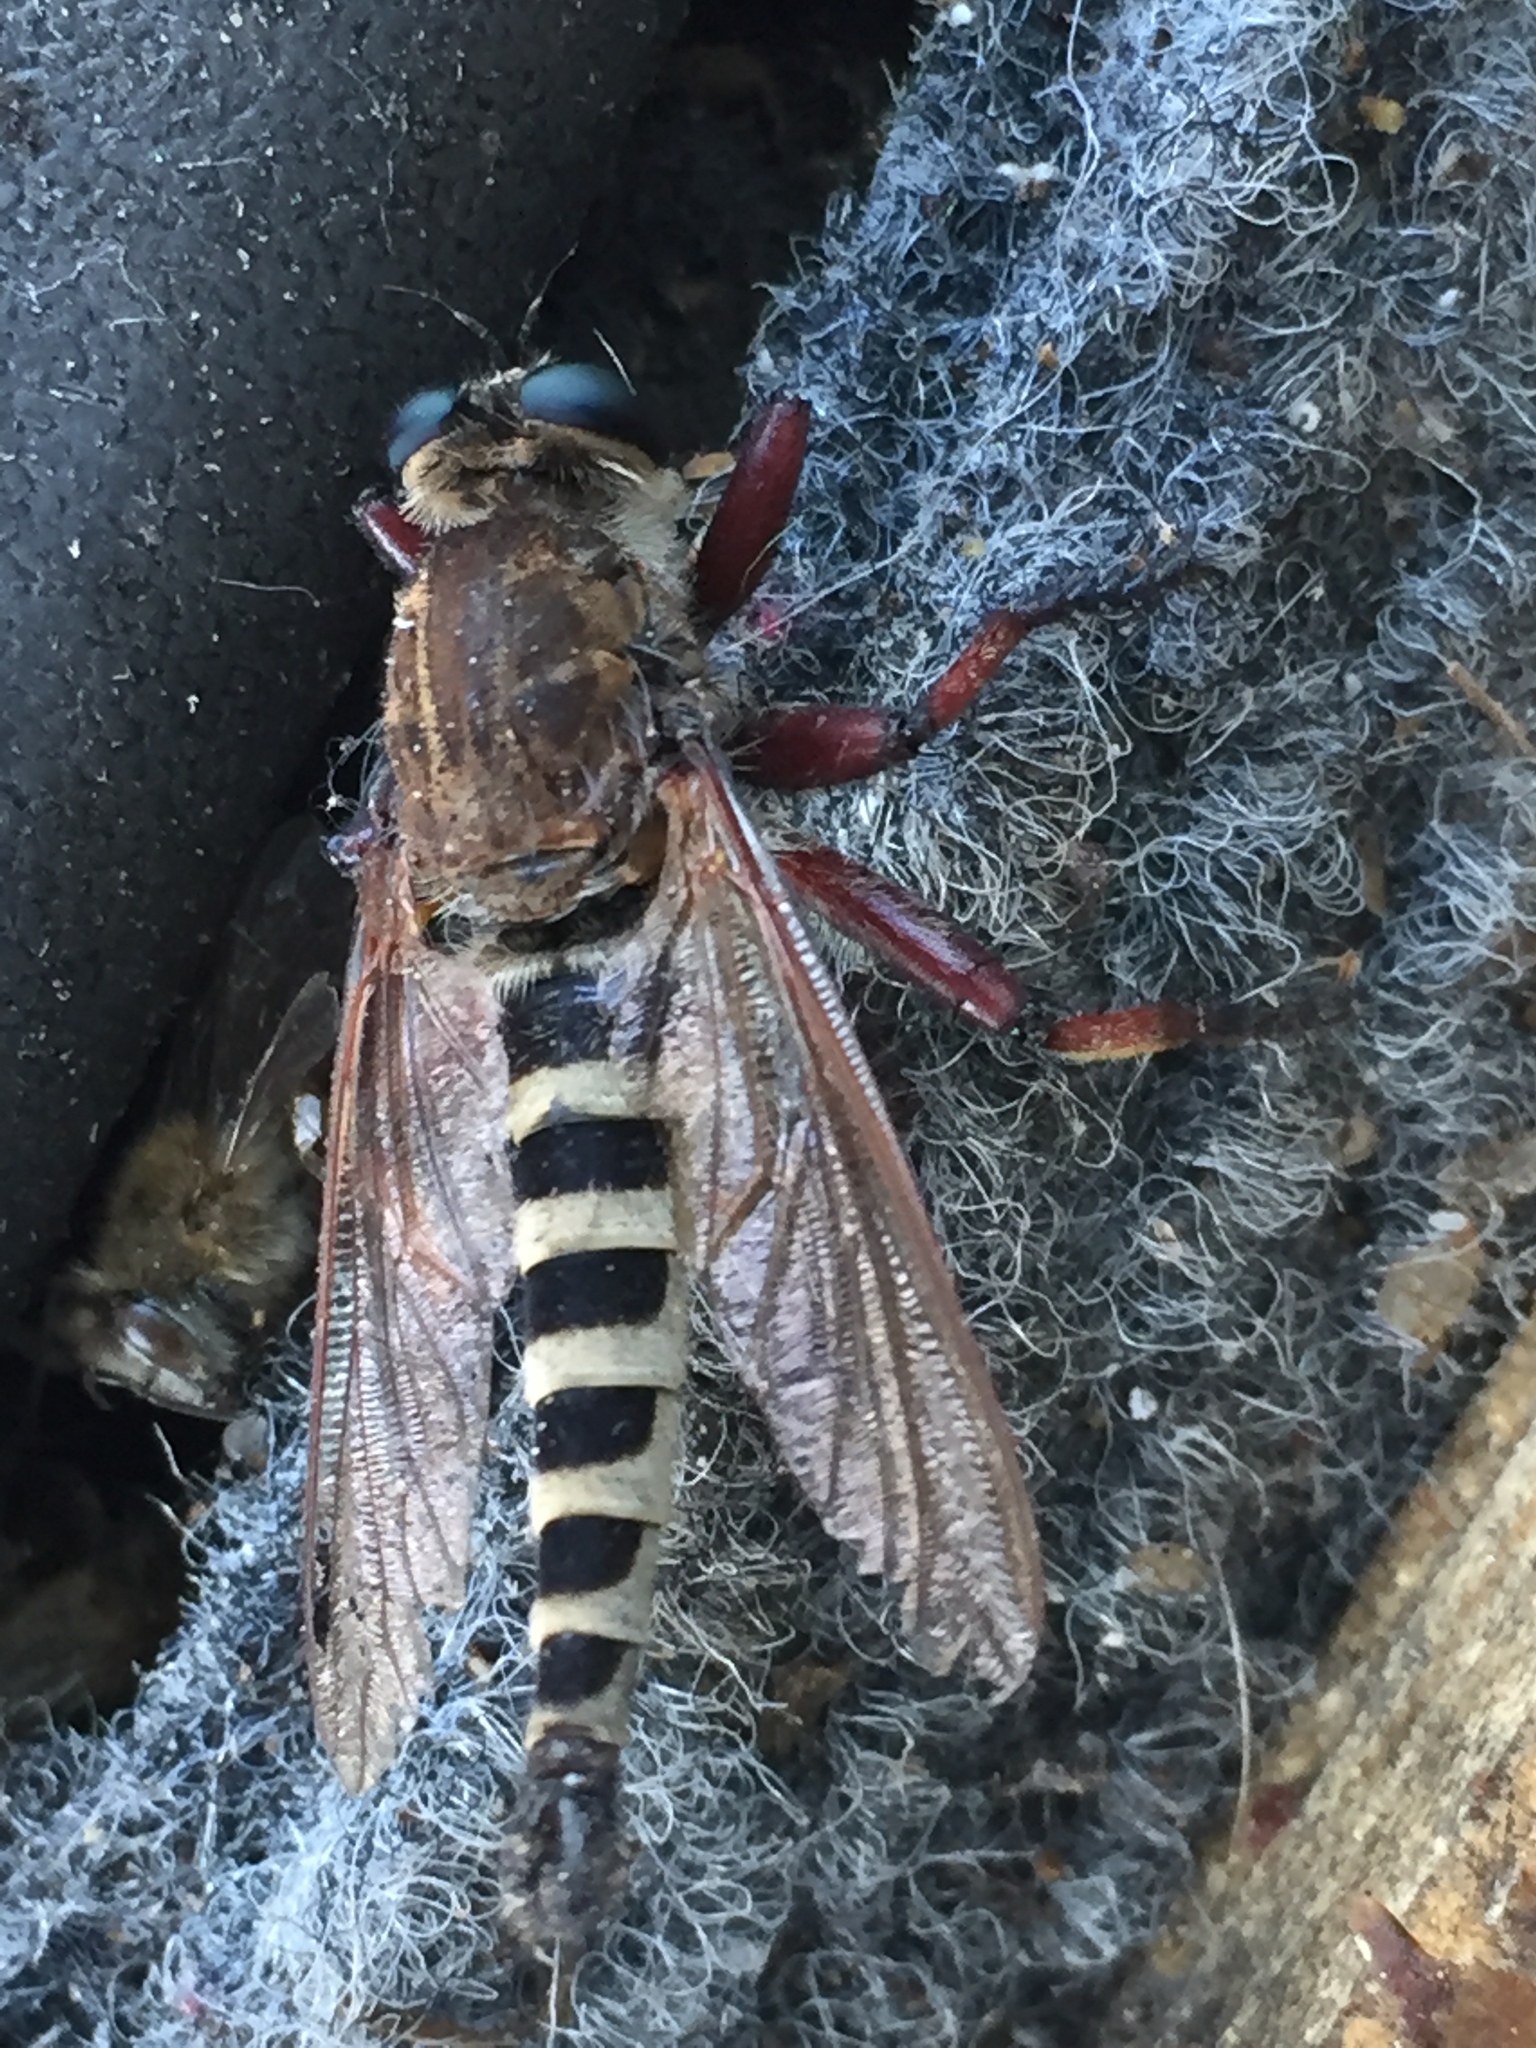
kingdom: Animalia
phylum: Arthropoda
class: Insecta
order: Diptera
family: Asilidae
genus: Promachus
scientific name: Promachus hinei
